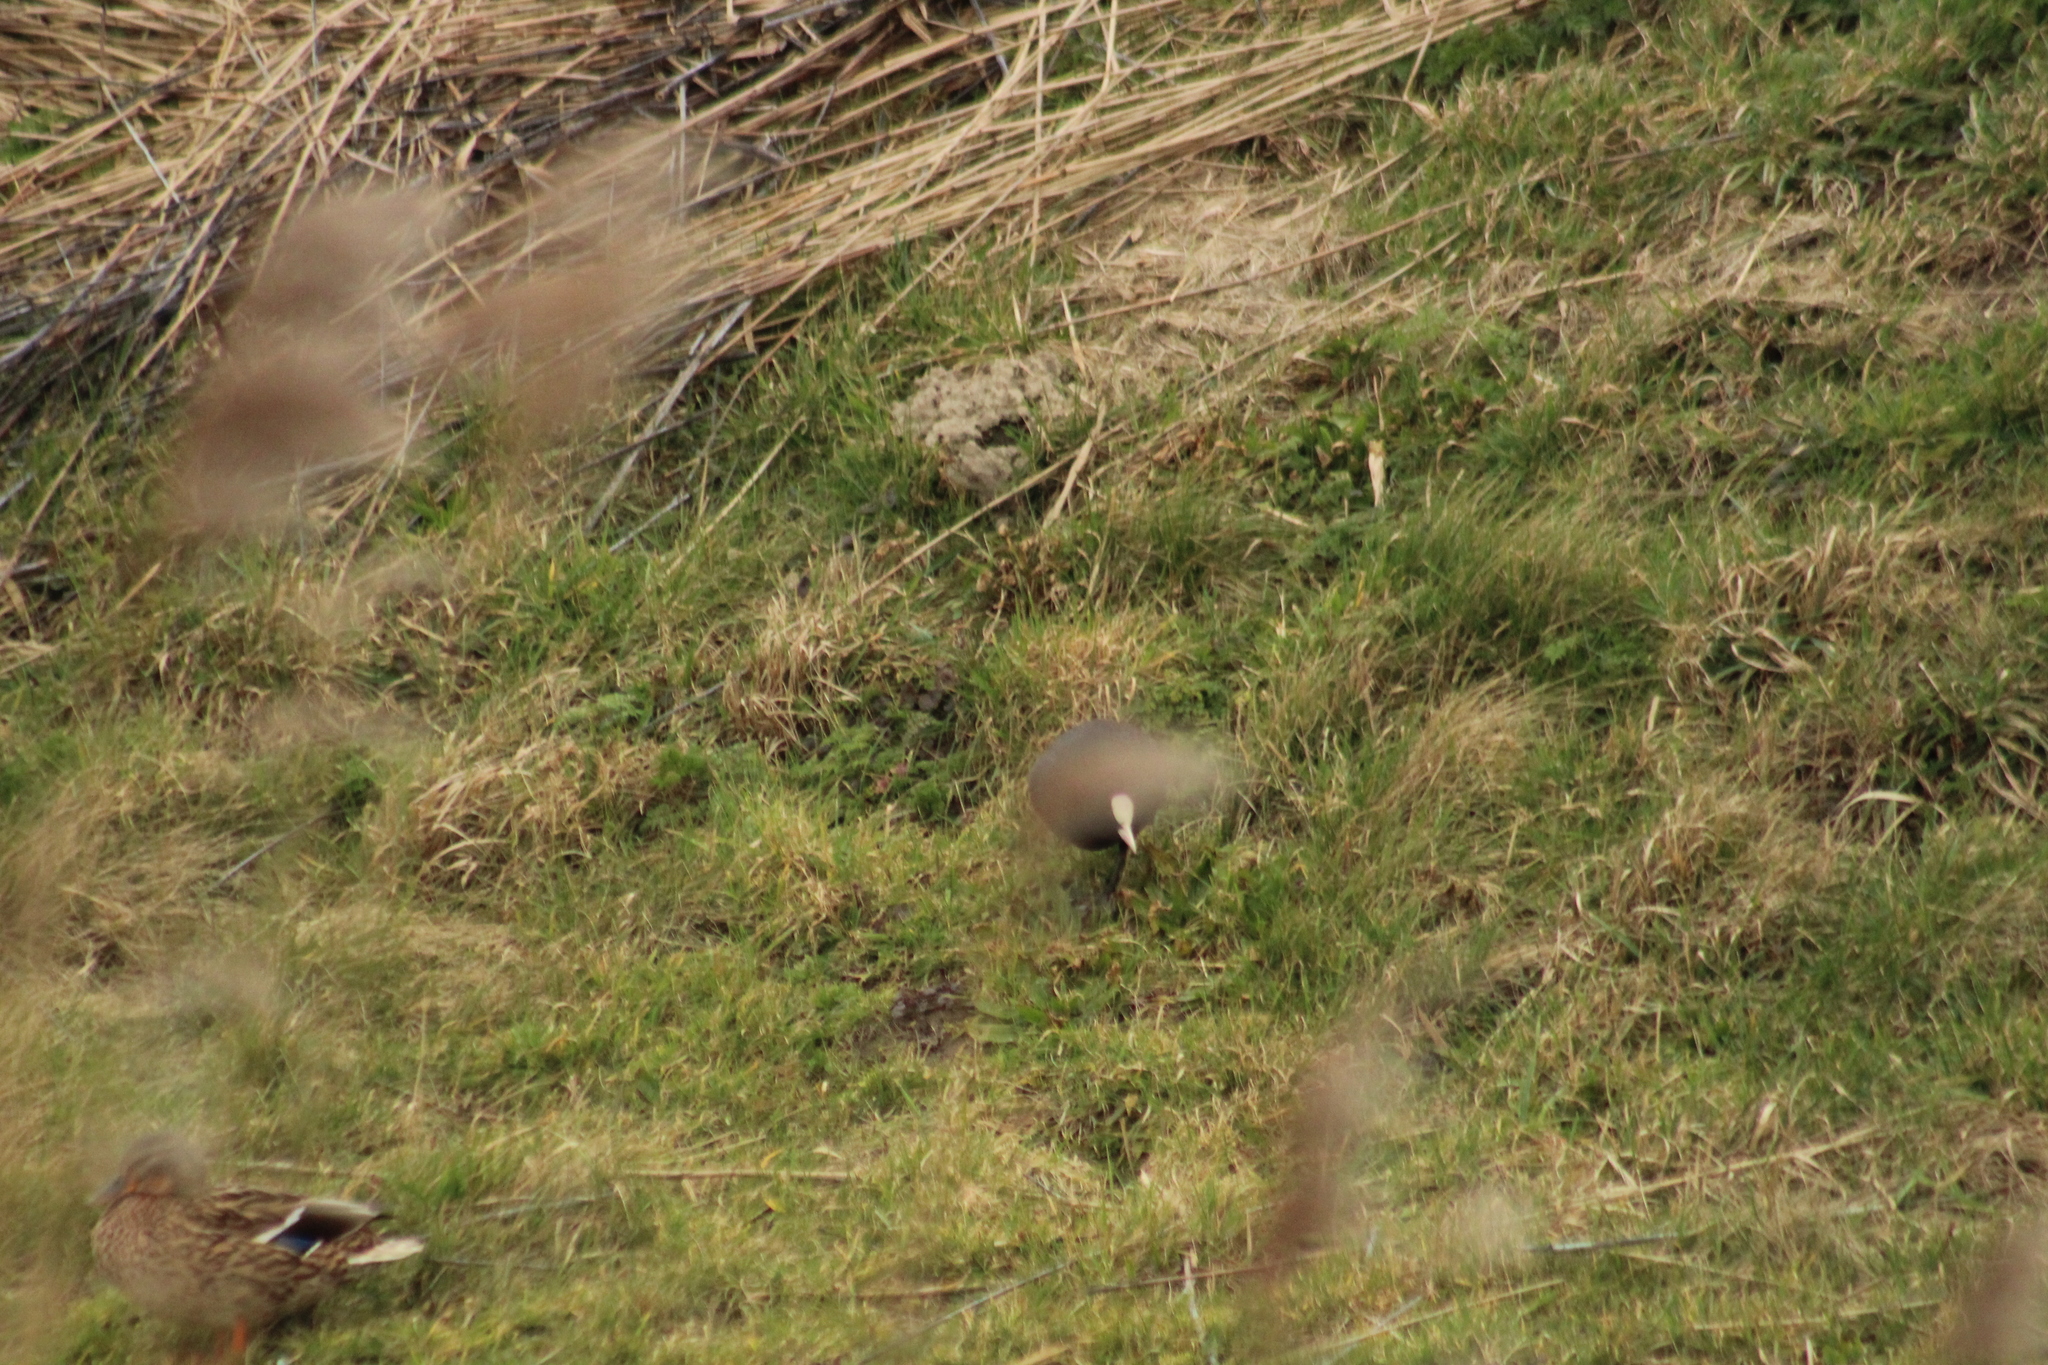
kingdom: Animalia
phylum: Chordata
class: Aves
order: Gruiformes
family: Rallidae
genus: Fulica
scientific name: Fulica atra
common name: Eurasian coot
